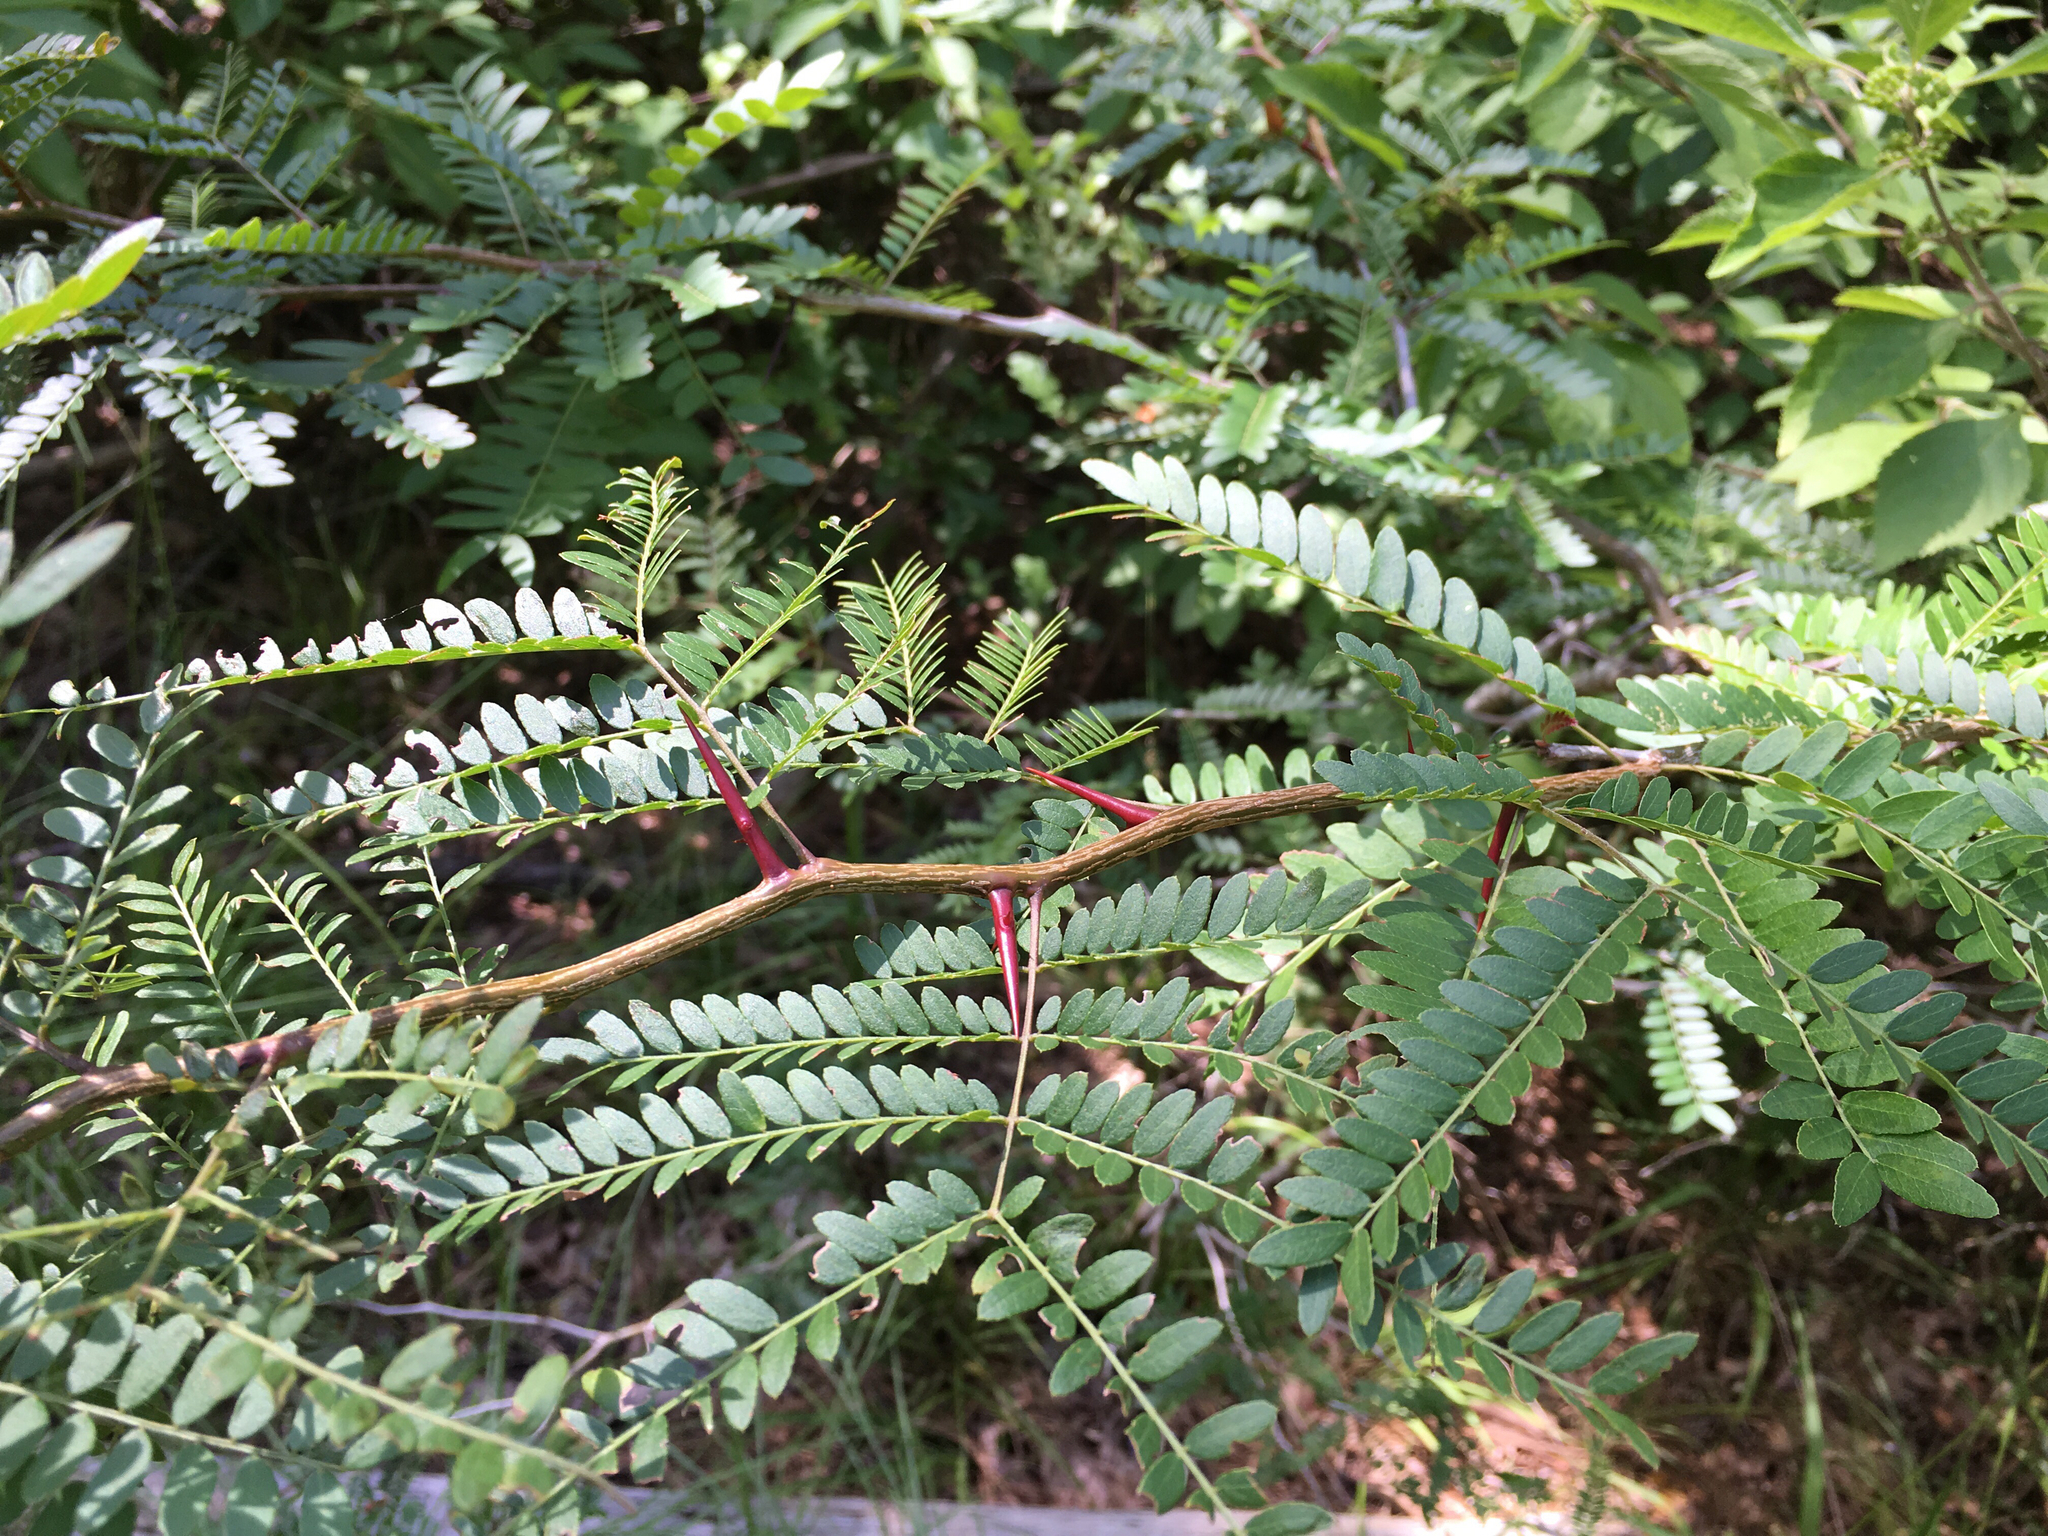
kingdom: Plantae
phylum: Tracheophyta
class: Magnoliopsida
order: Fabales
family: Fabaceae
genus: Gleditsia
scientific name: Gleditsia triacanthos
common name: Common honeylocust
